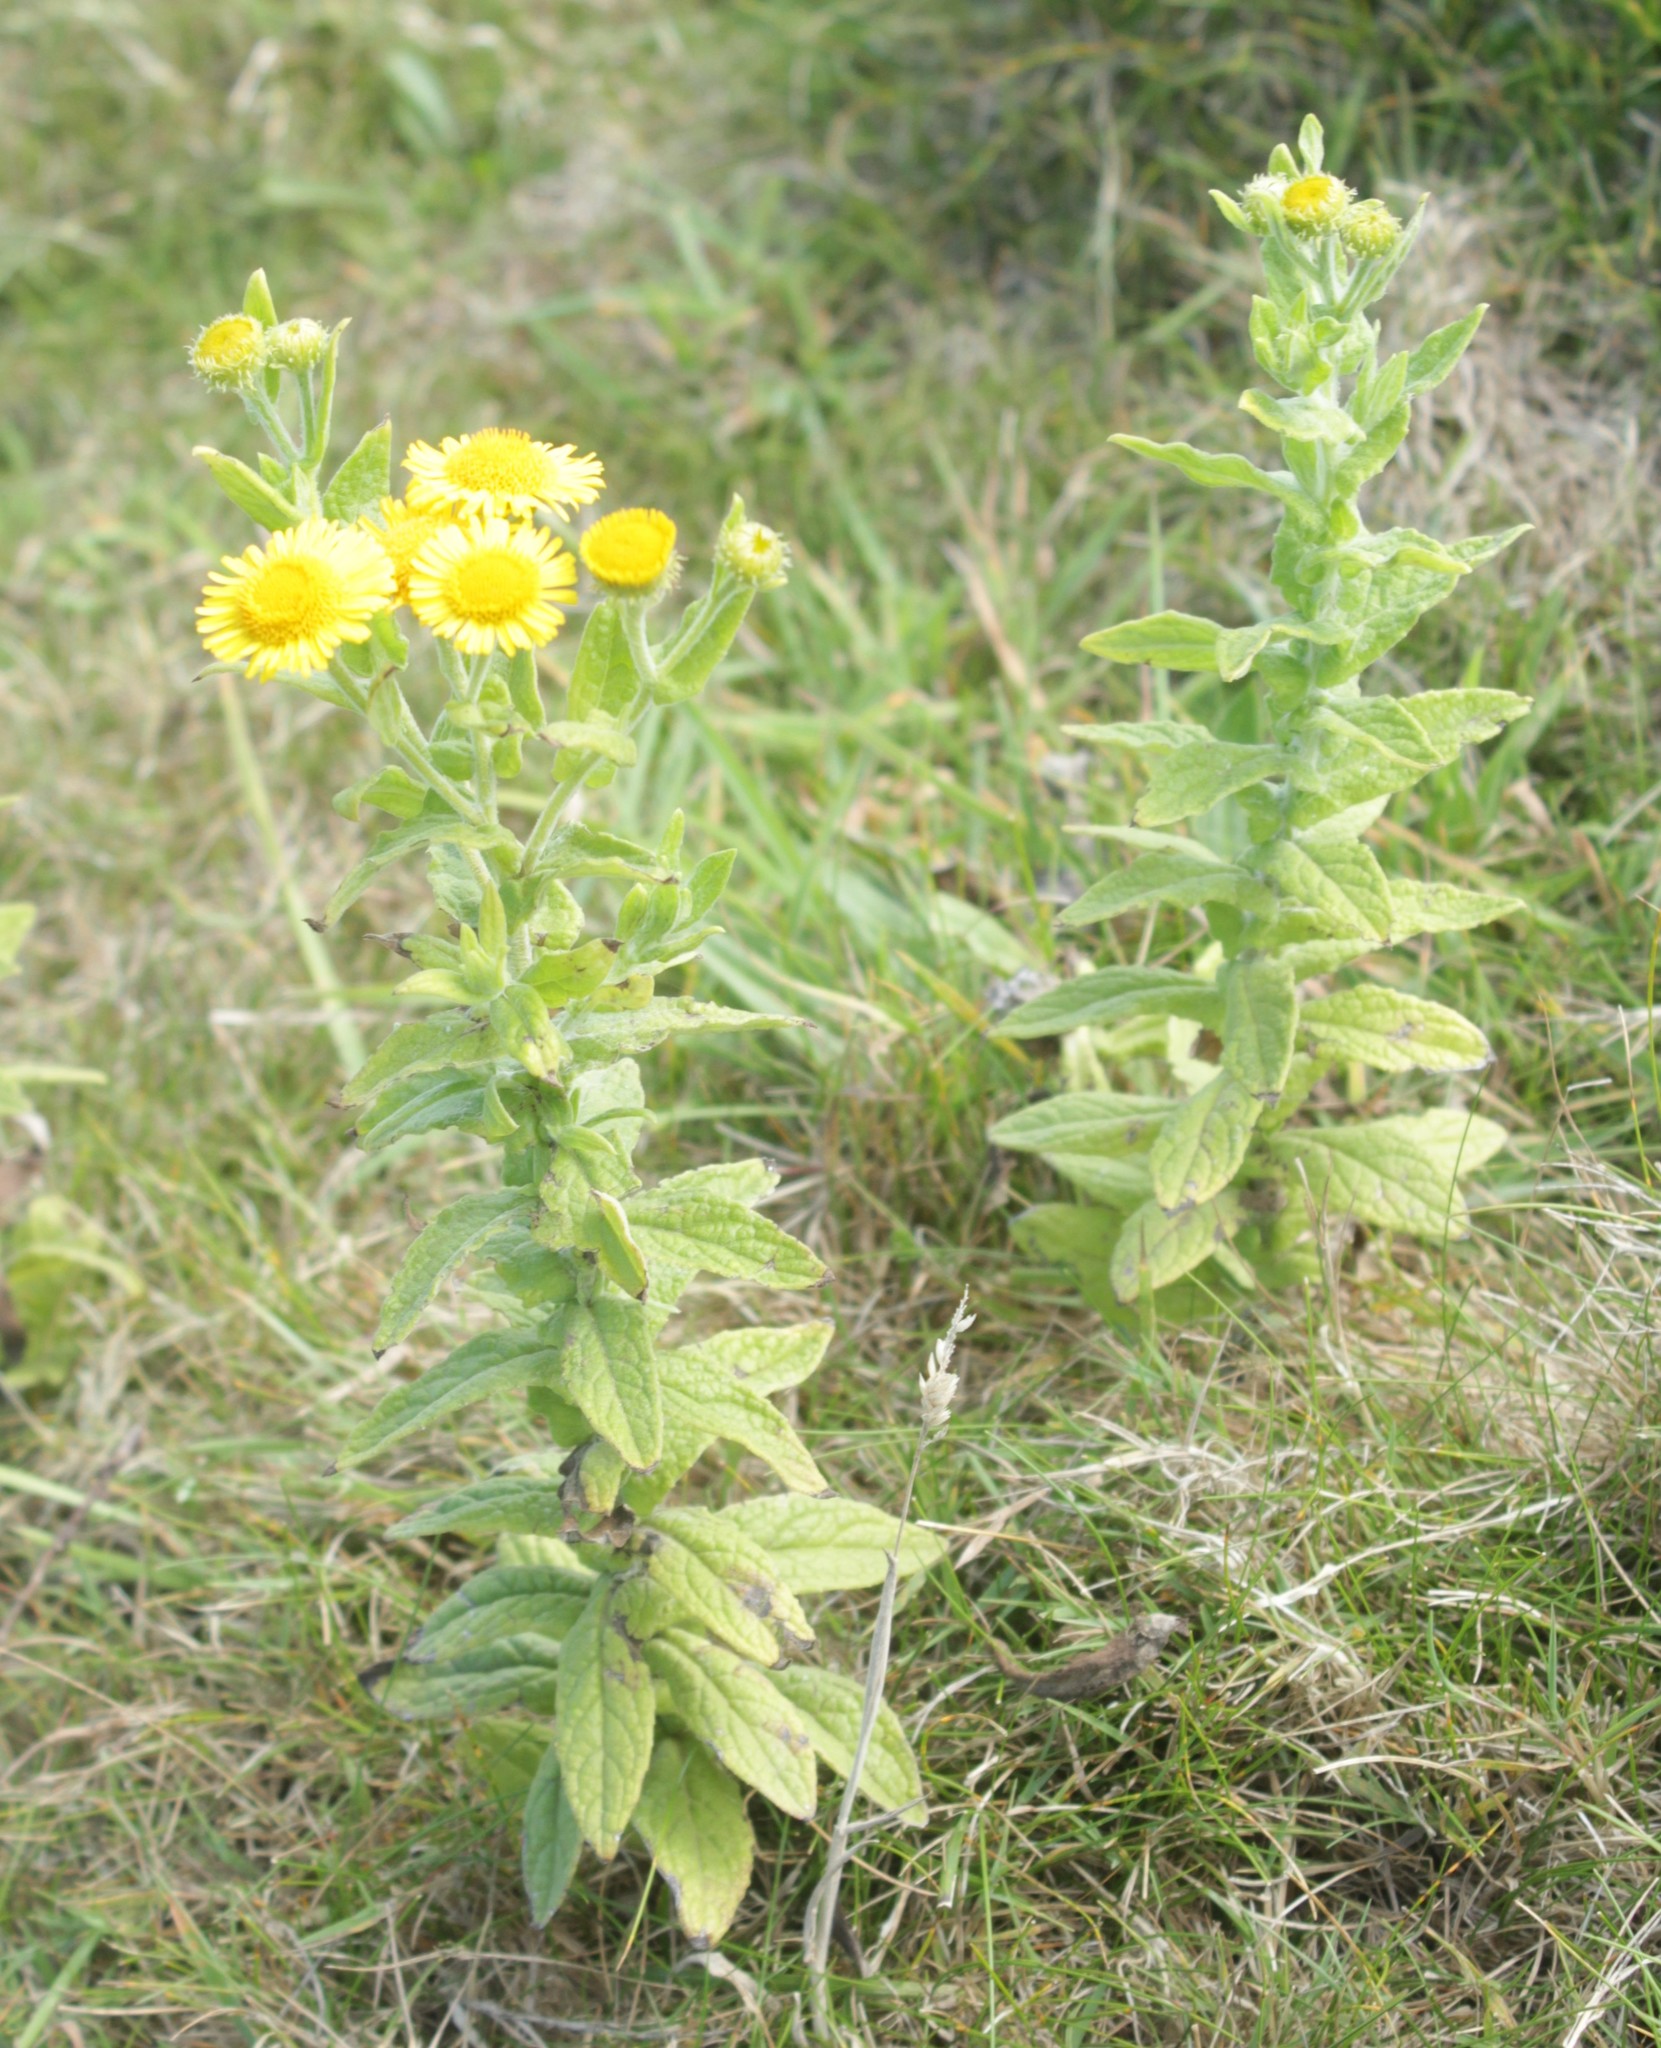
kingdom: Plantae
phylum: Tracheophyta
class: Magnoliopsida
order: Asterales
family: Asteraceae
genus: Pulicaria
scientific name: Pulicaria dysenterica
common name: Common fleabane
